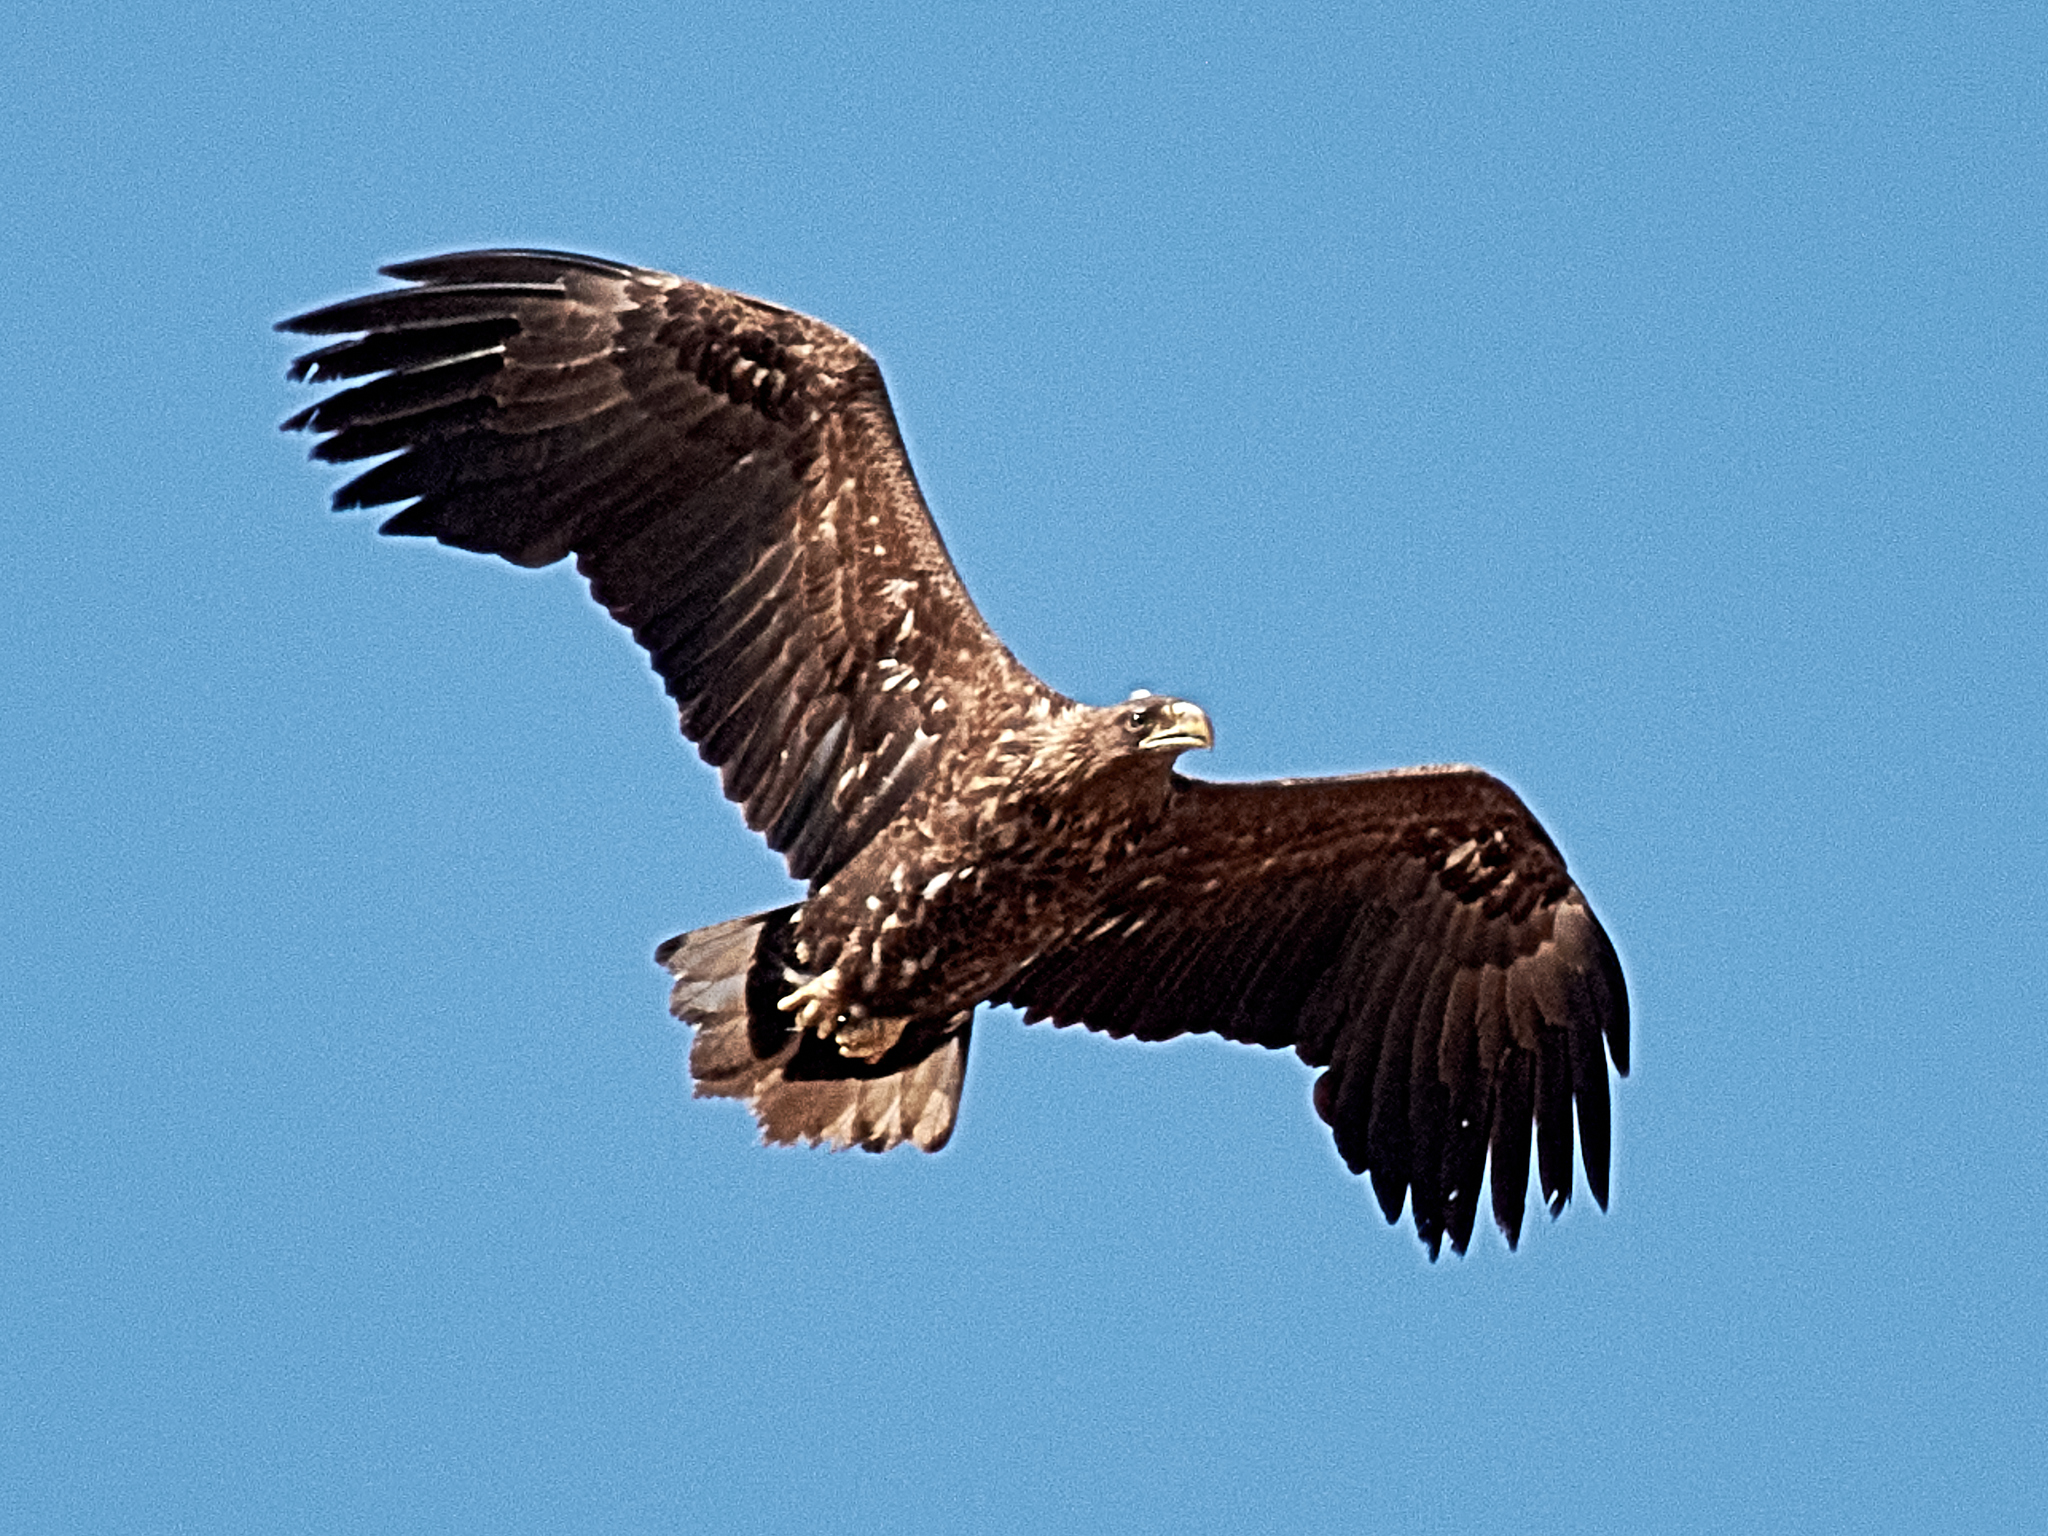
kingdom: Animalia
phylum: Chordata
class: Aves
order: Accipitriformes
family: Accipitridae
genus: Haliaeetus
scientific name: Haliaeetus albicilla
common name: White-tailed eagle
